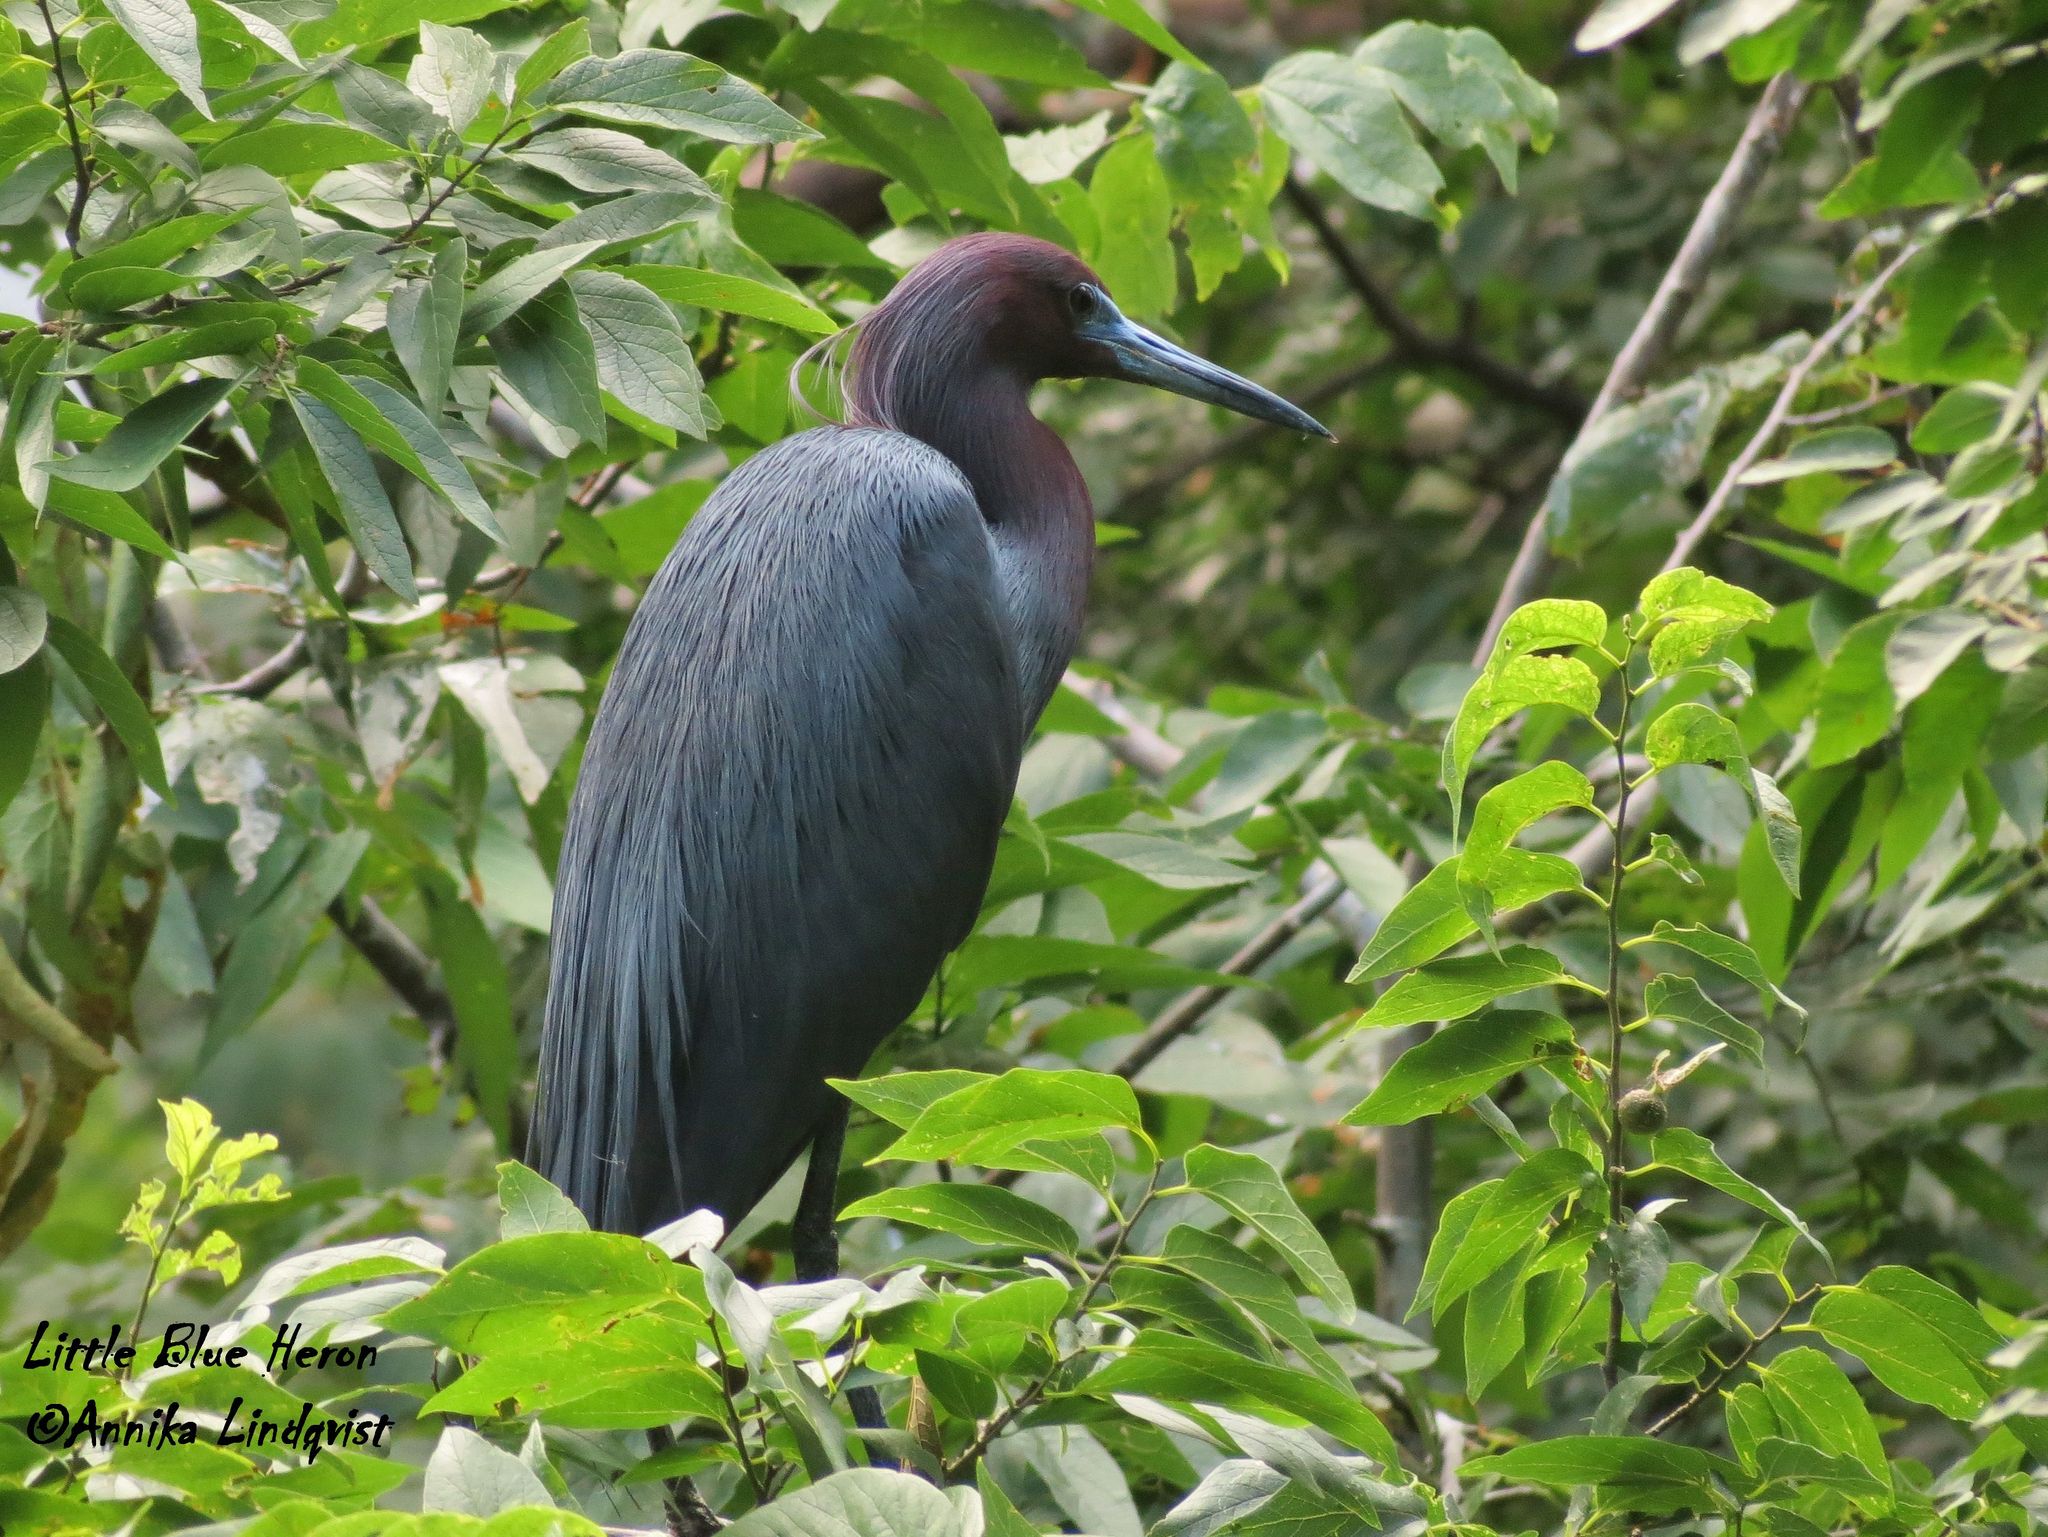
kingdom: Animalia
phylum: Chordata
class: Aves
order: Pelecaniformes
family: Ardeidae
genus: Egretta
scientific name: Egretta caerulea
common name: Little blue heron
